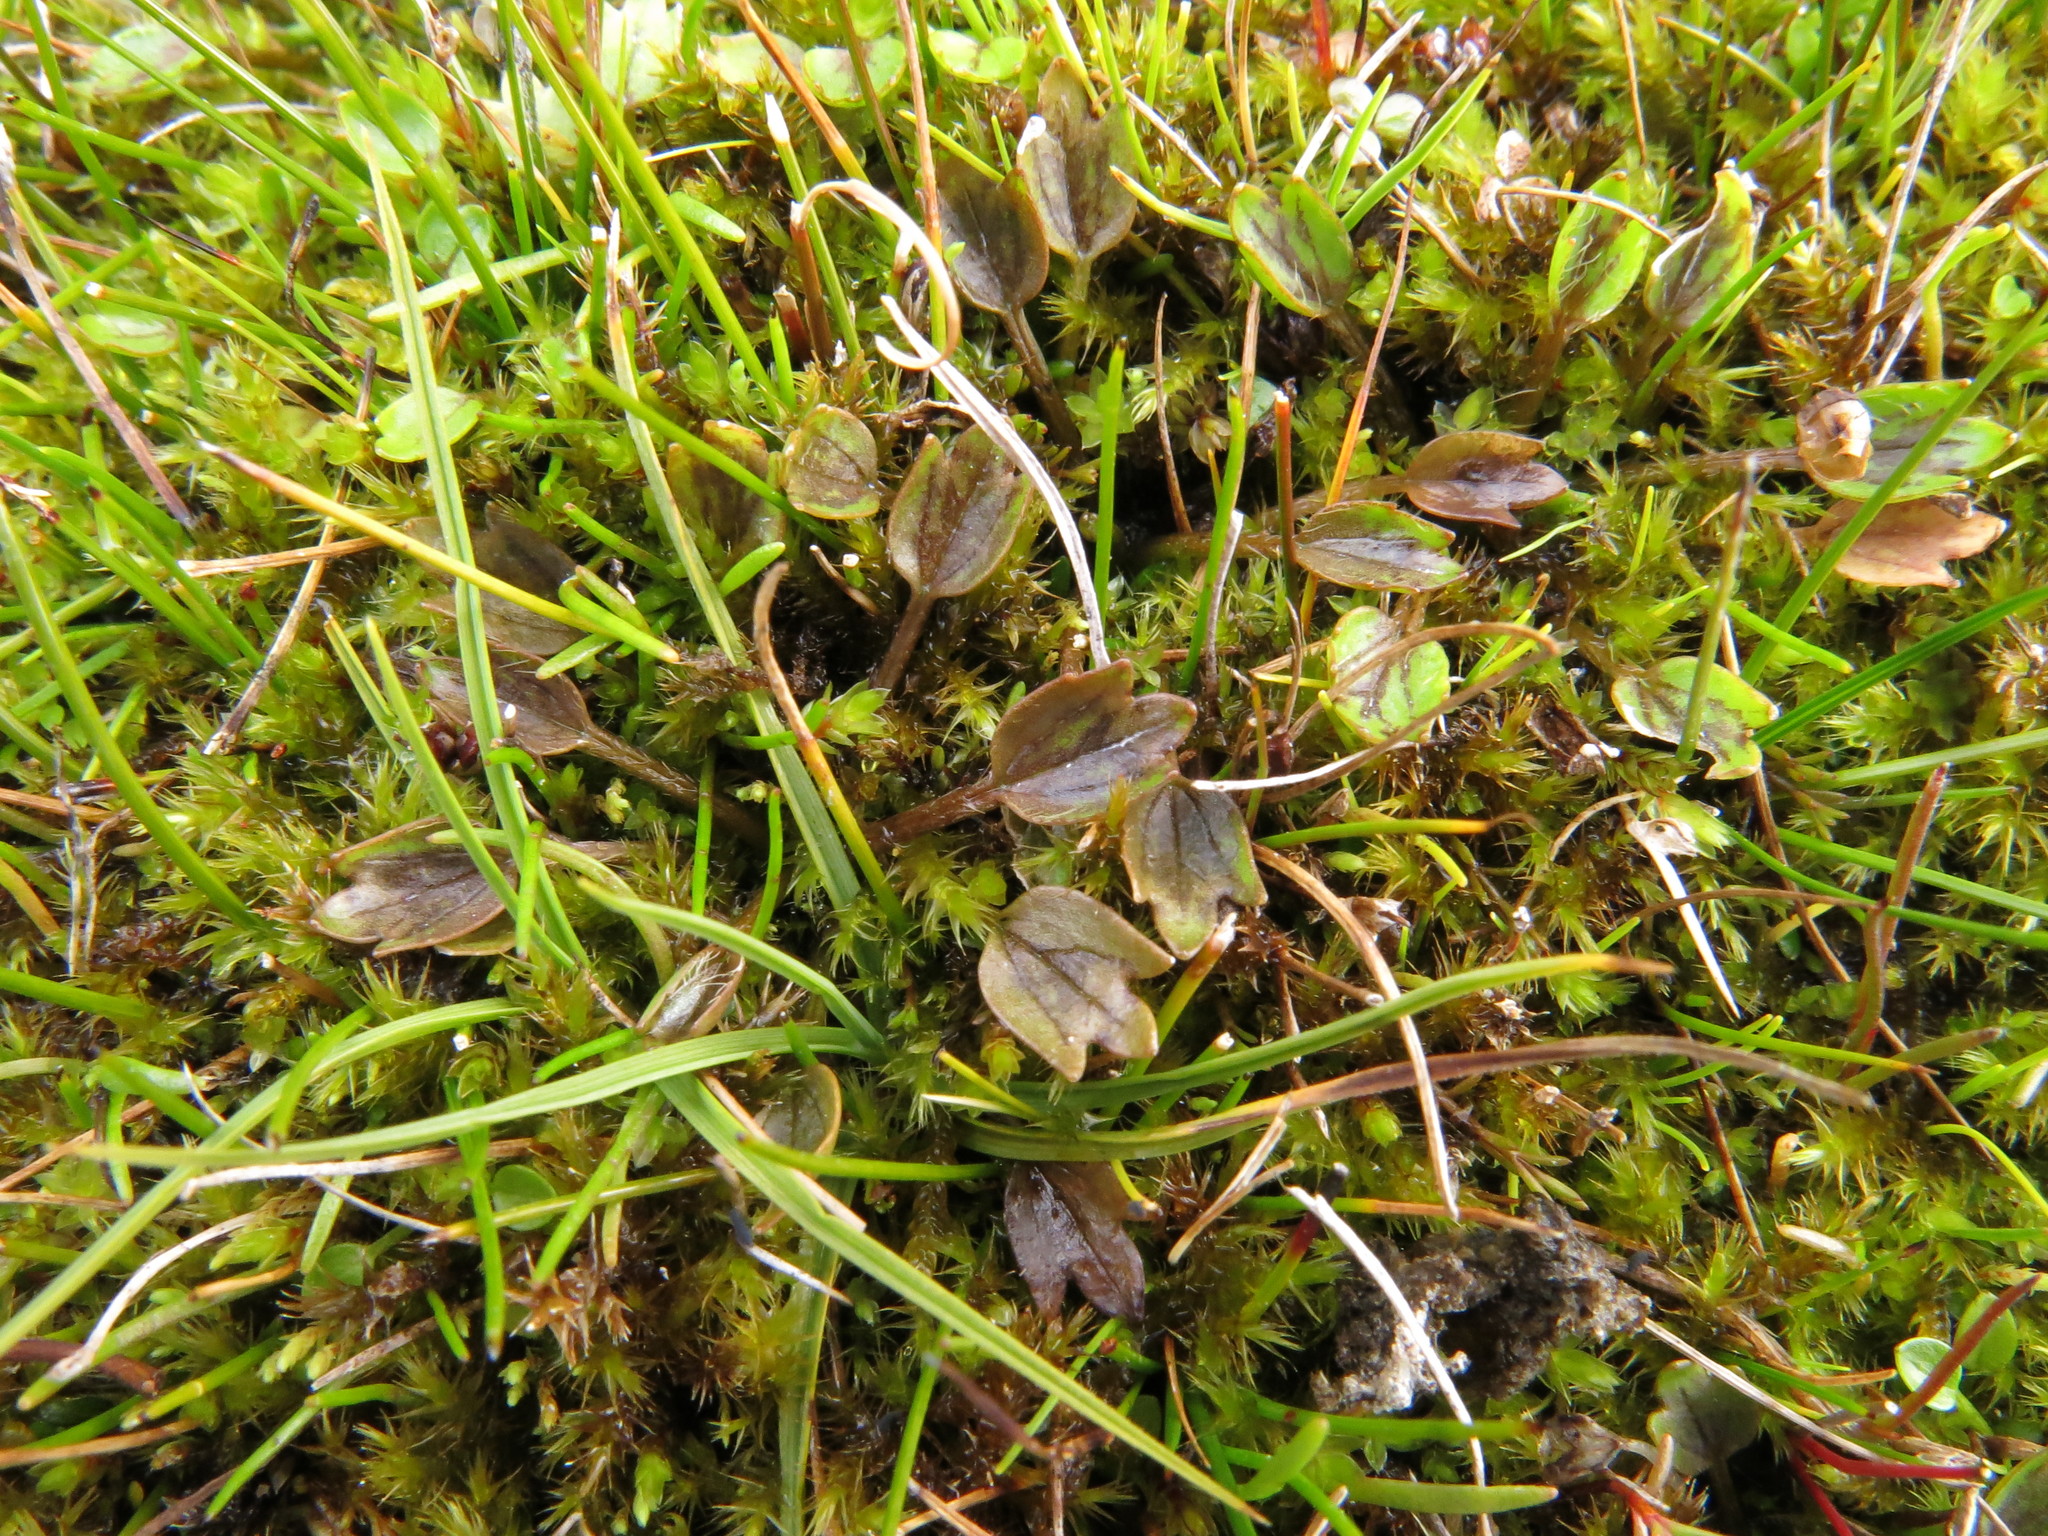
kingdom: Plantae
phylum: Tracheophyta
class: Magnoliopsida
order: Ranunculales
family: Ranunculaceae
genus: Ranunculus
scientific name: Ranunculus maculatus
